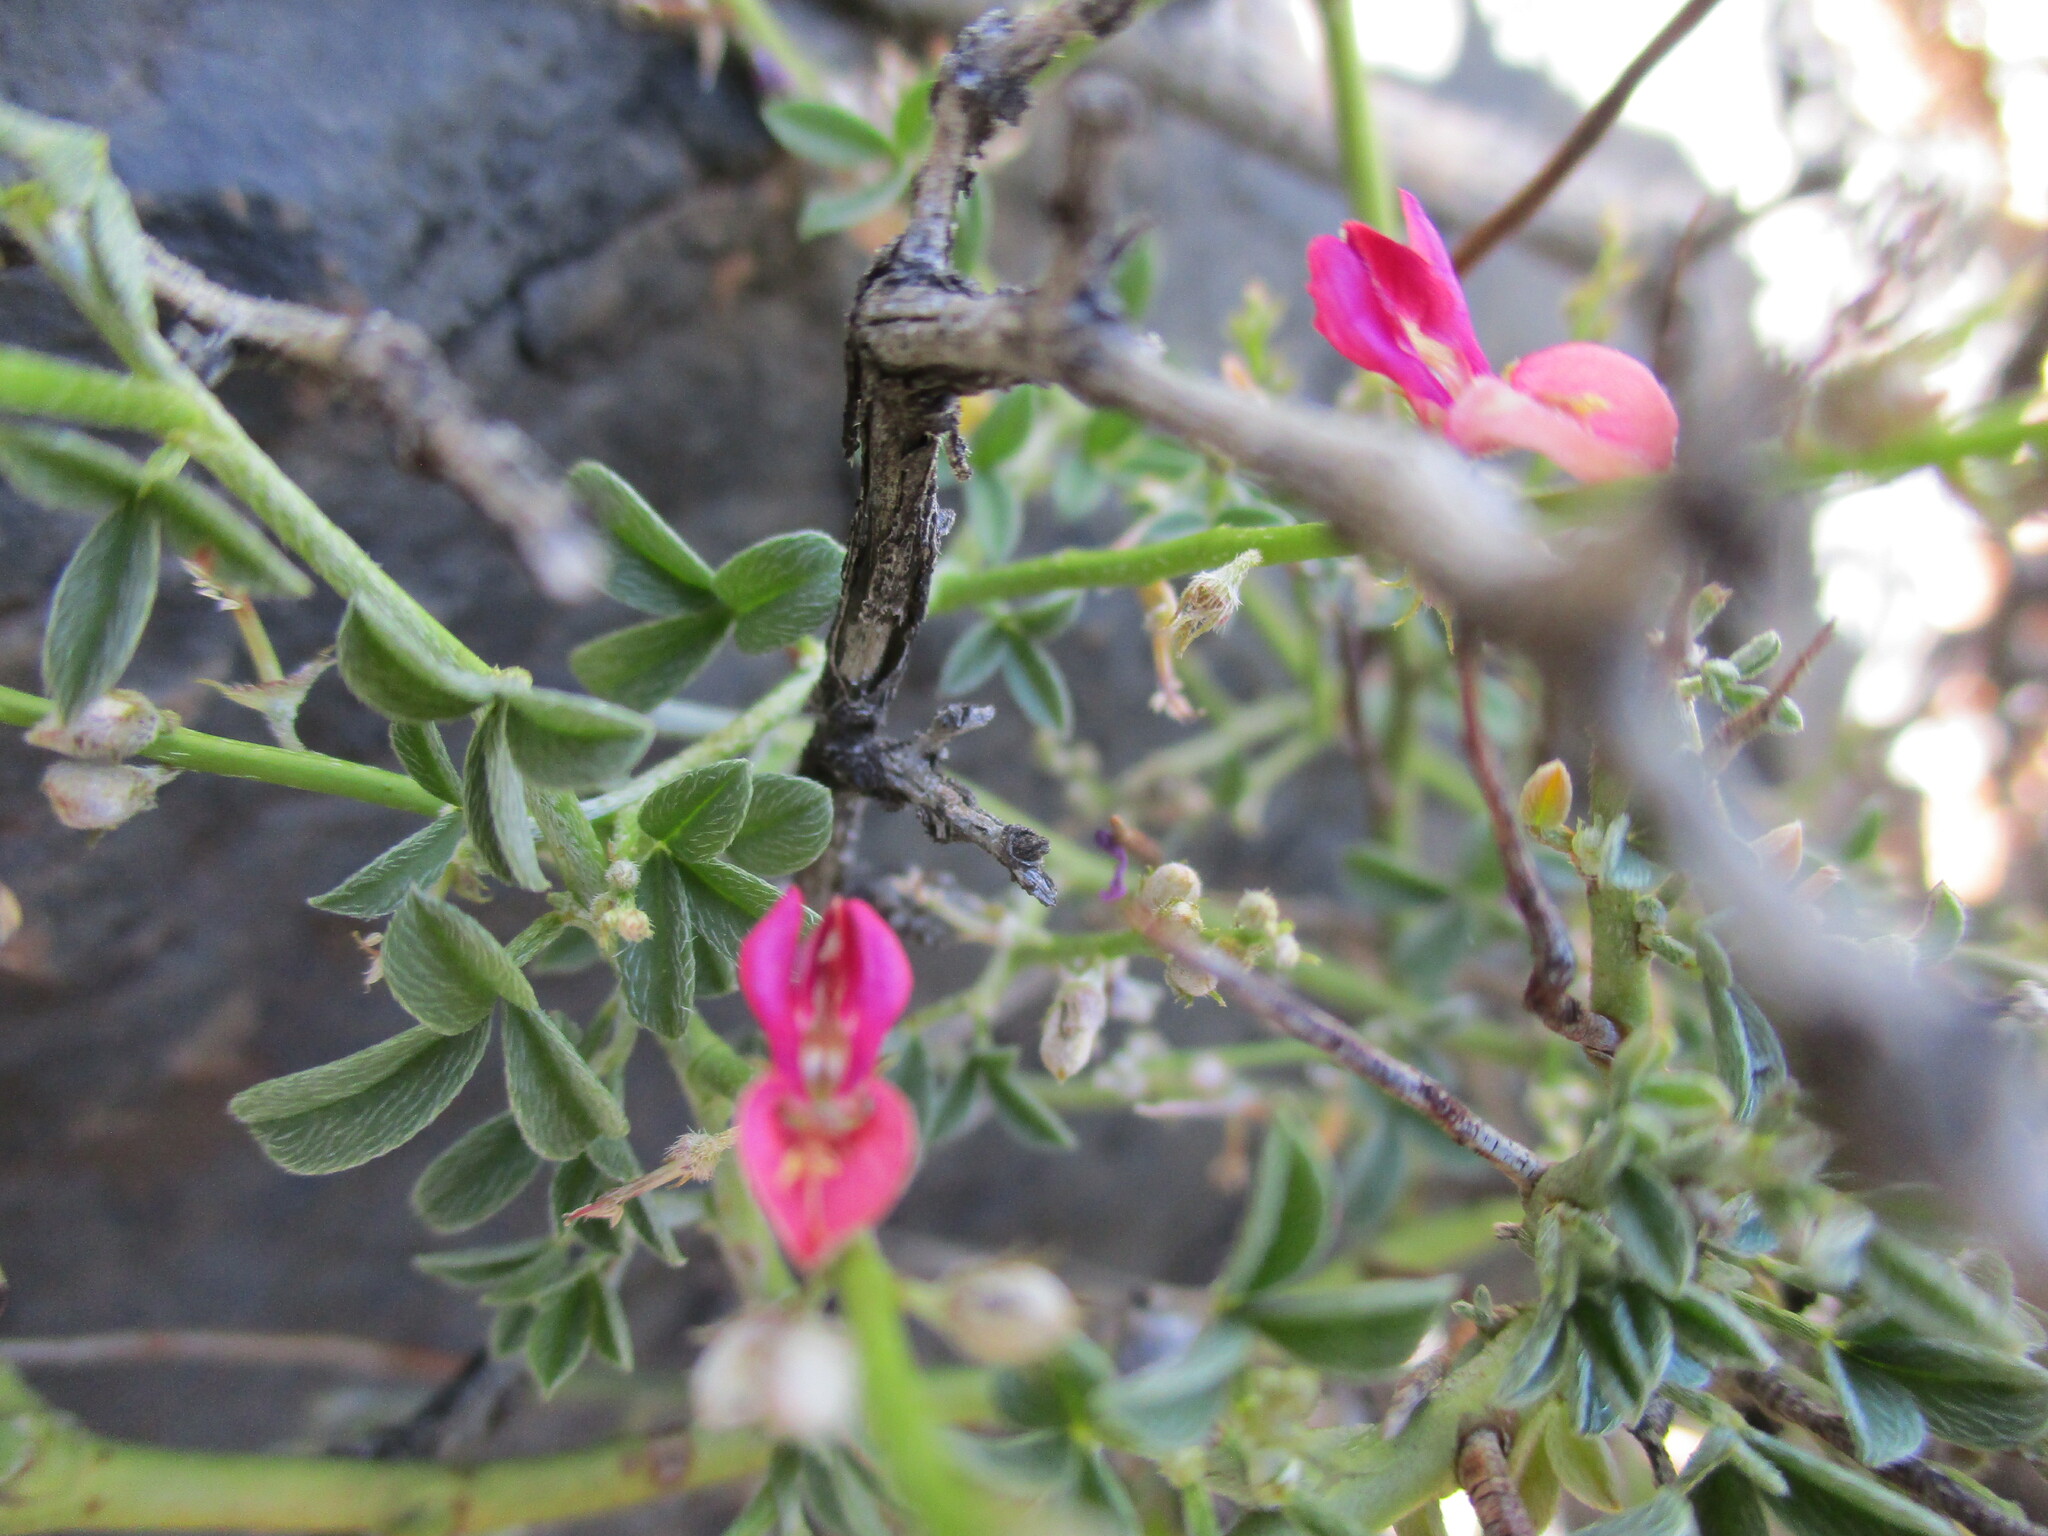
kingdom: Plantae
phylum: Tracheophyta
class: Magnoliopsida
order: Fabales
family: Fabaceae
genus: Indigofera
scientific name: Indigofera pungens
